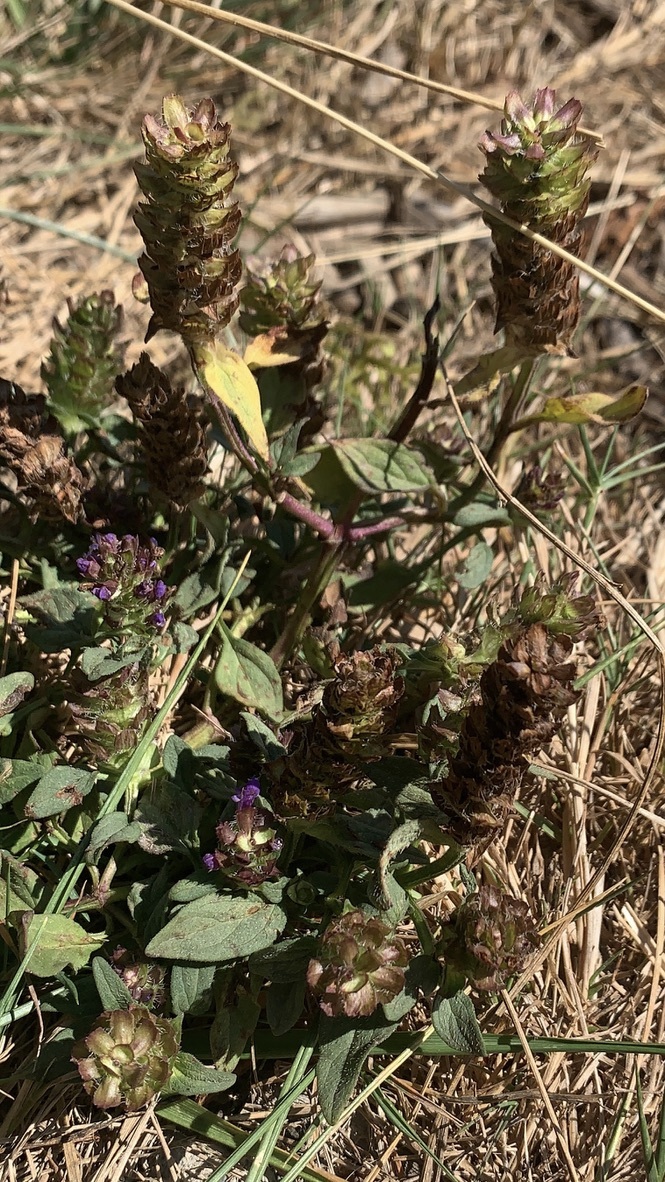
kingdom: Plantae
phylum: Tracheophyta
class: Magnoliopsida
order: Lamiales
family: Lamiaceae
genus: Prunella
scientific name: Prunella vulgaris
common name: Heal-all
